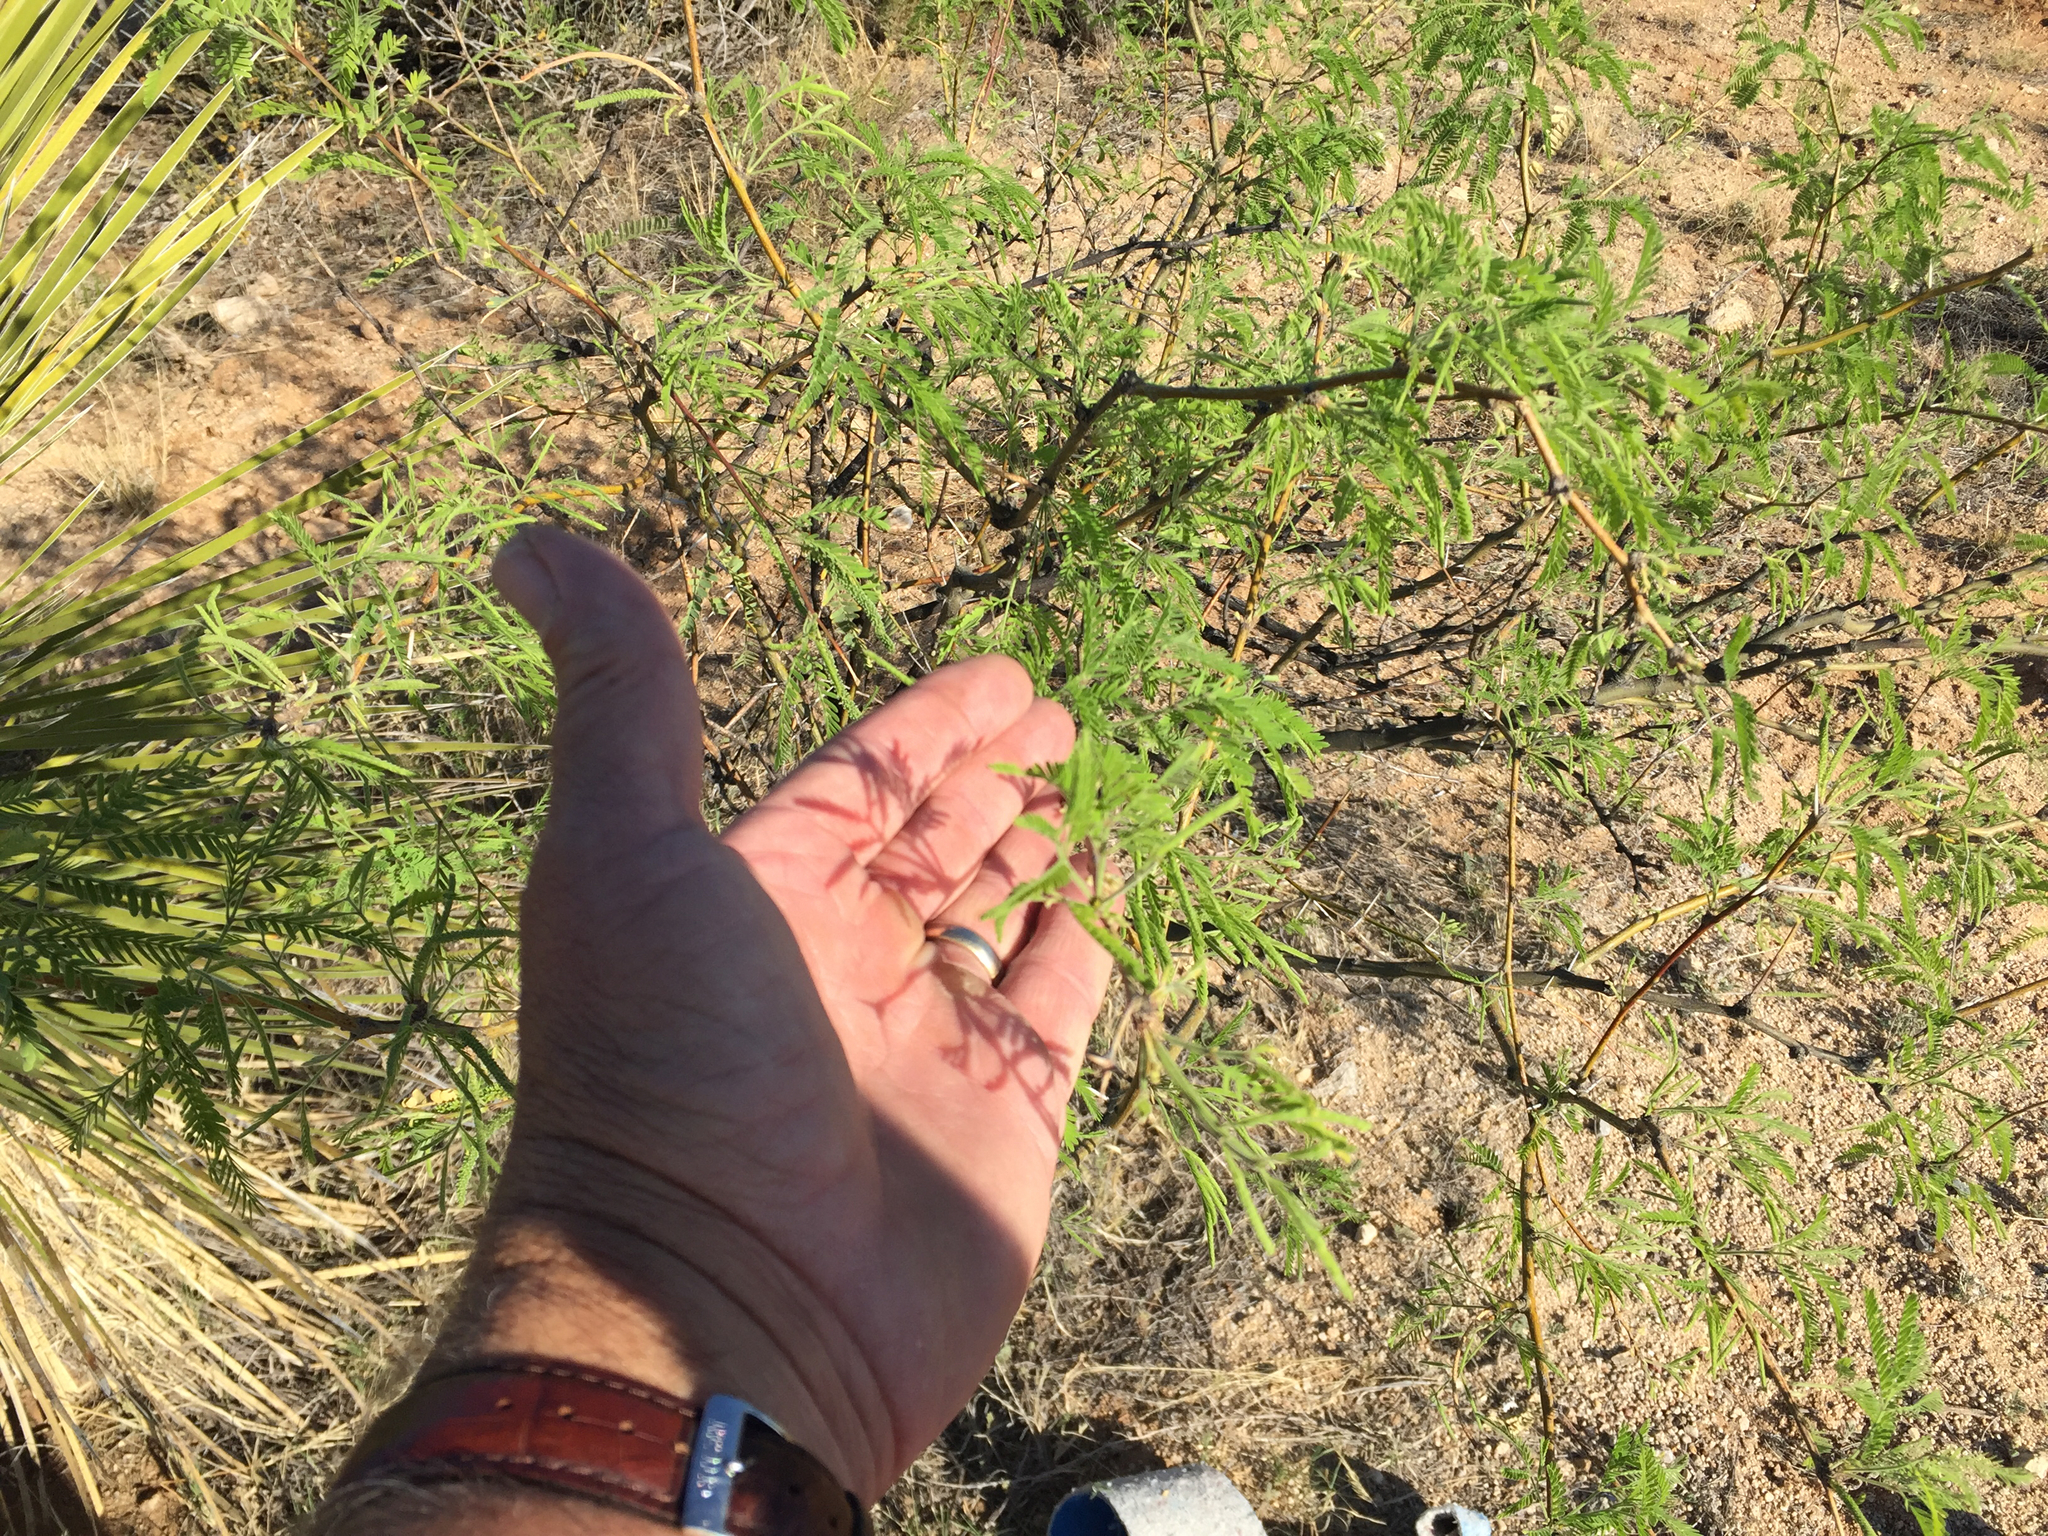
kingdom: Plantae
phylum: Tracheophyta
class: Magnoliopsida
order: Fabales
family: Fabaceae
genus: Prosopis
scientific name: Prosopis velutina
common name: Velvet mesquite
